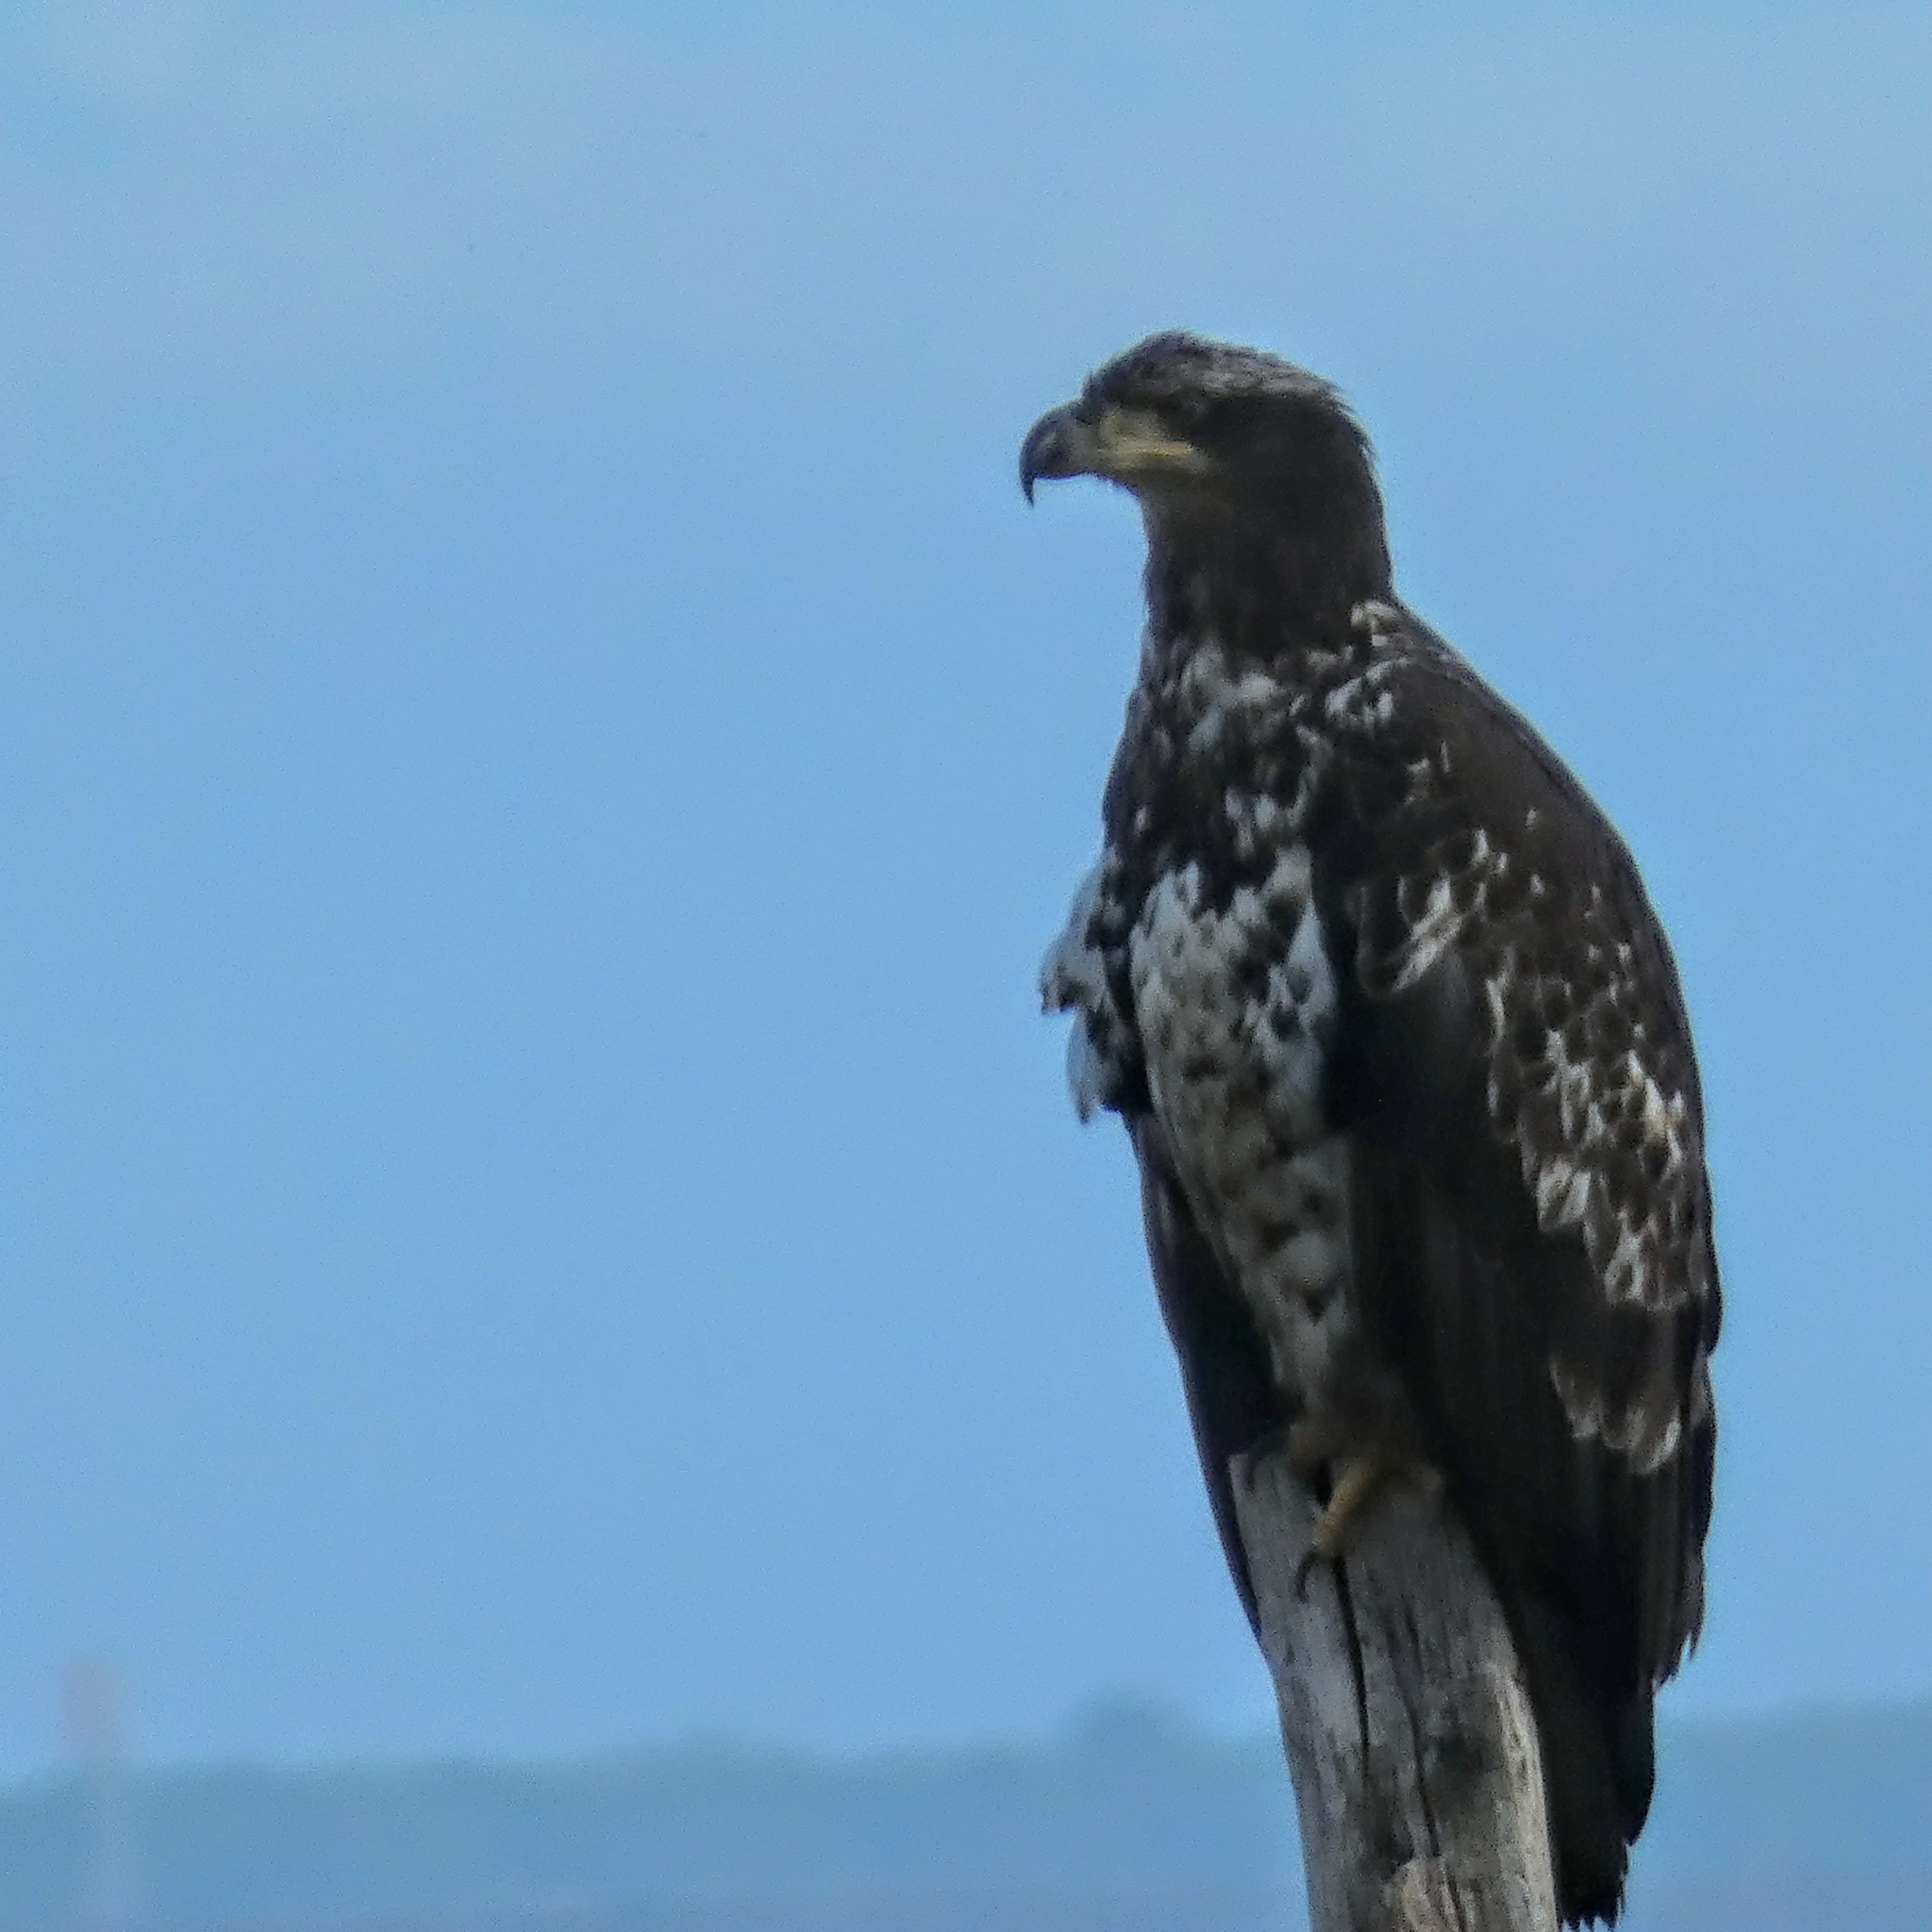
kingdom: Animalia
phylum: Chordata
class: Aves
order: Accipitriformes
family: Accipitridae
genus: Haliaeetus
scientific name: Haliaeetus leucocephalus
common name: Bald eagle
